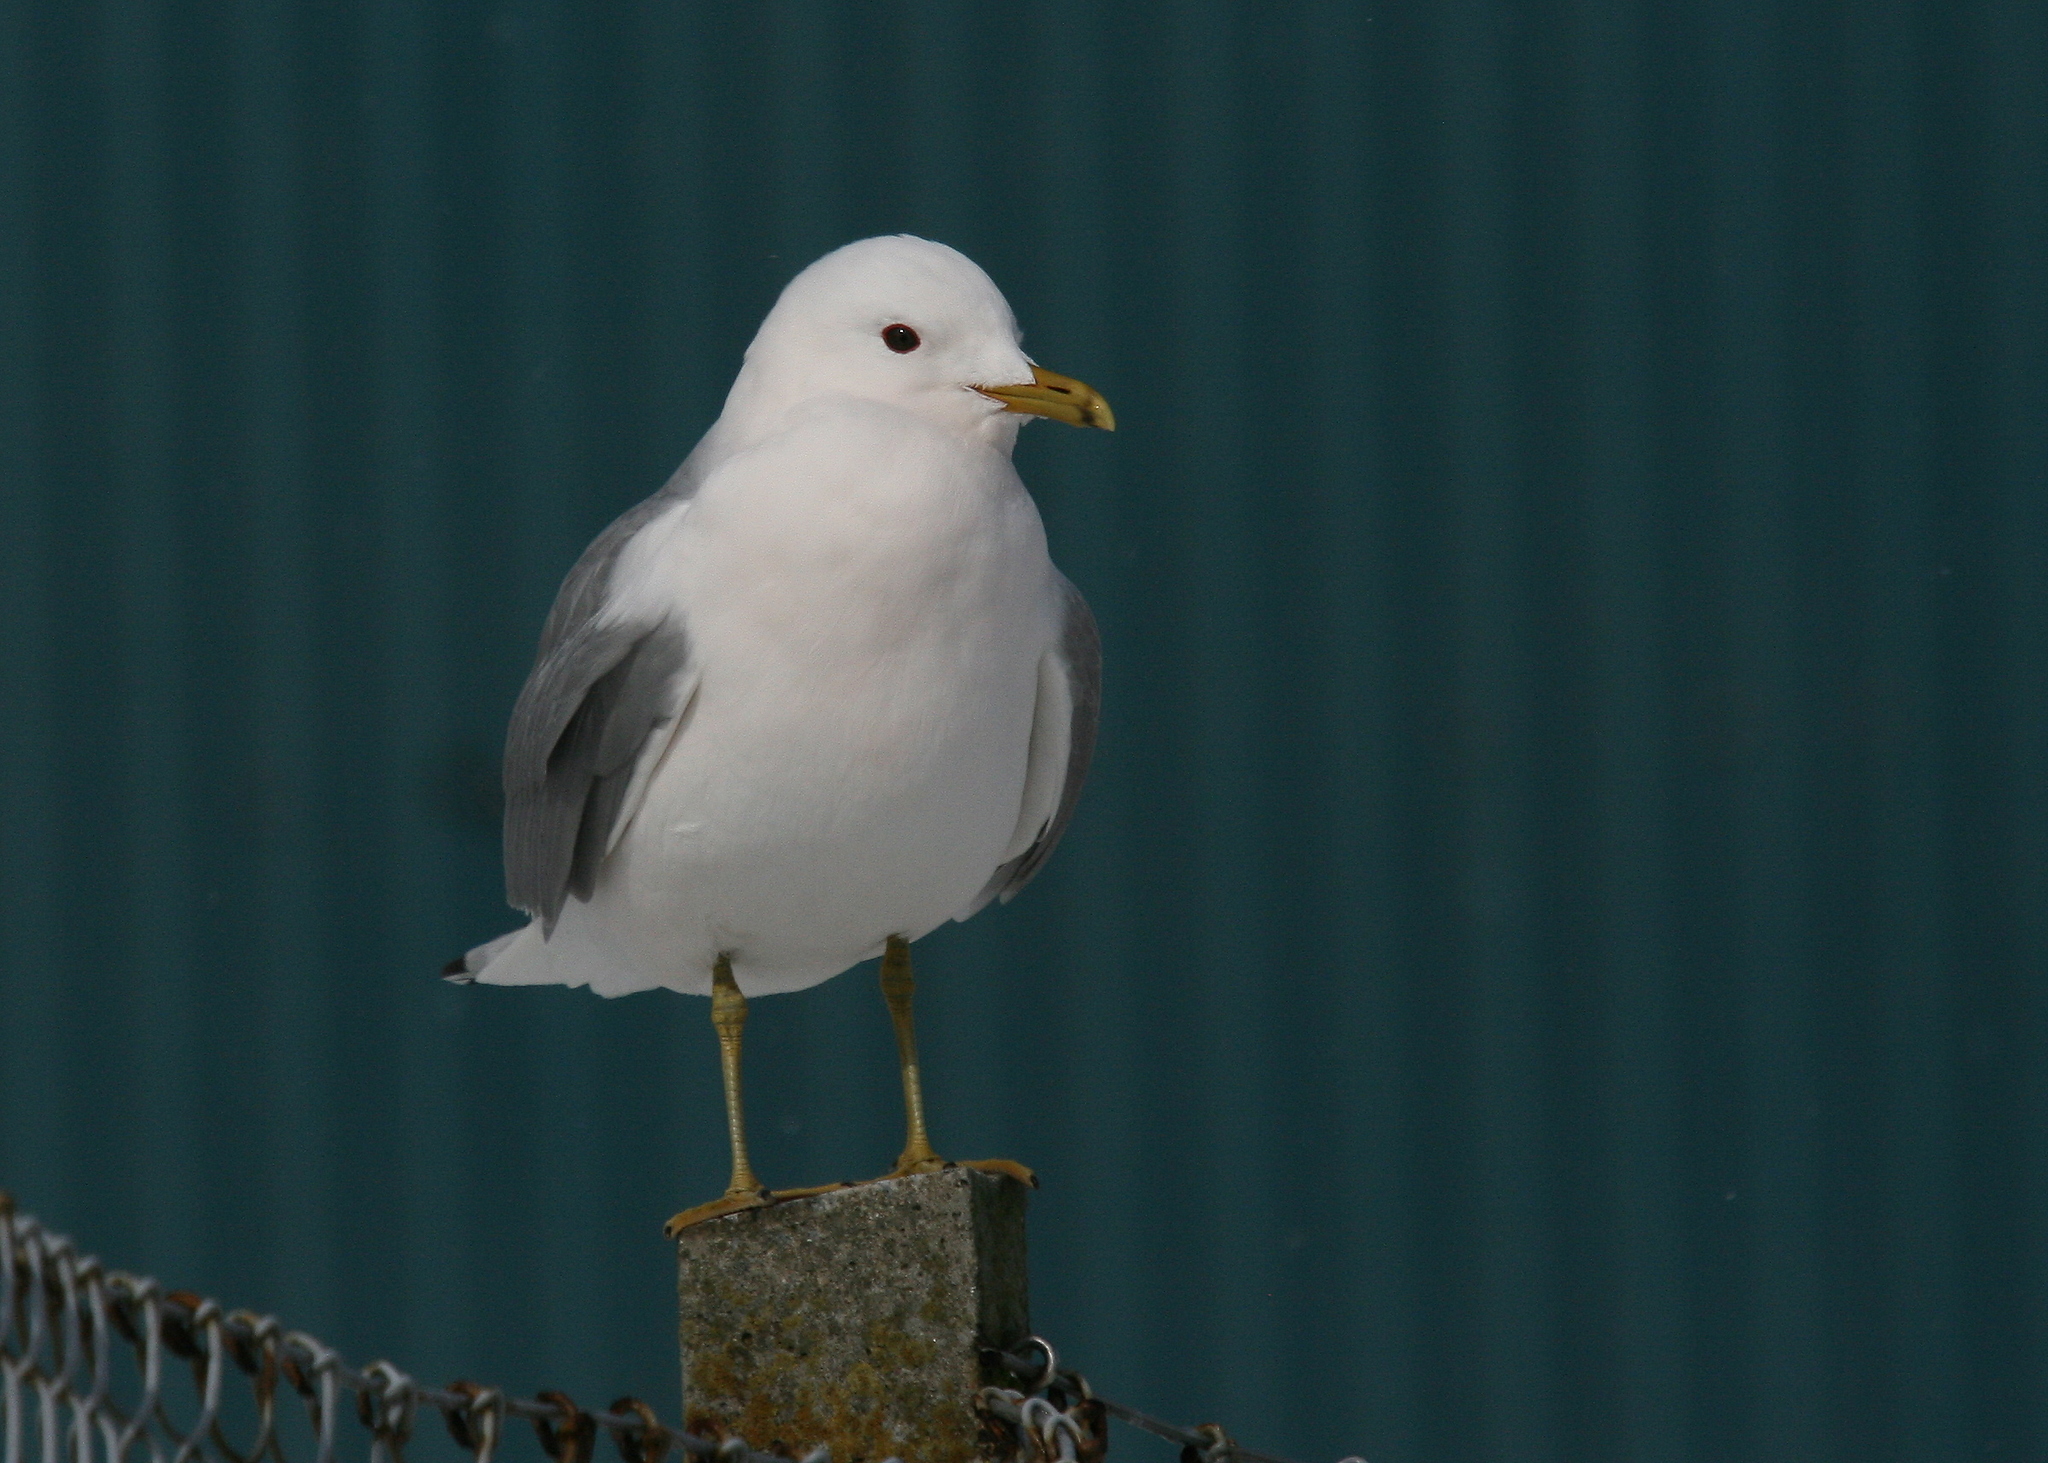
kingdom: Animalia
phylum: Chordata
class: Aves
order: Charadriiformes
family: Laridae
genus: Larus
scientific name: Larus canus
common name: Mew gull
